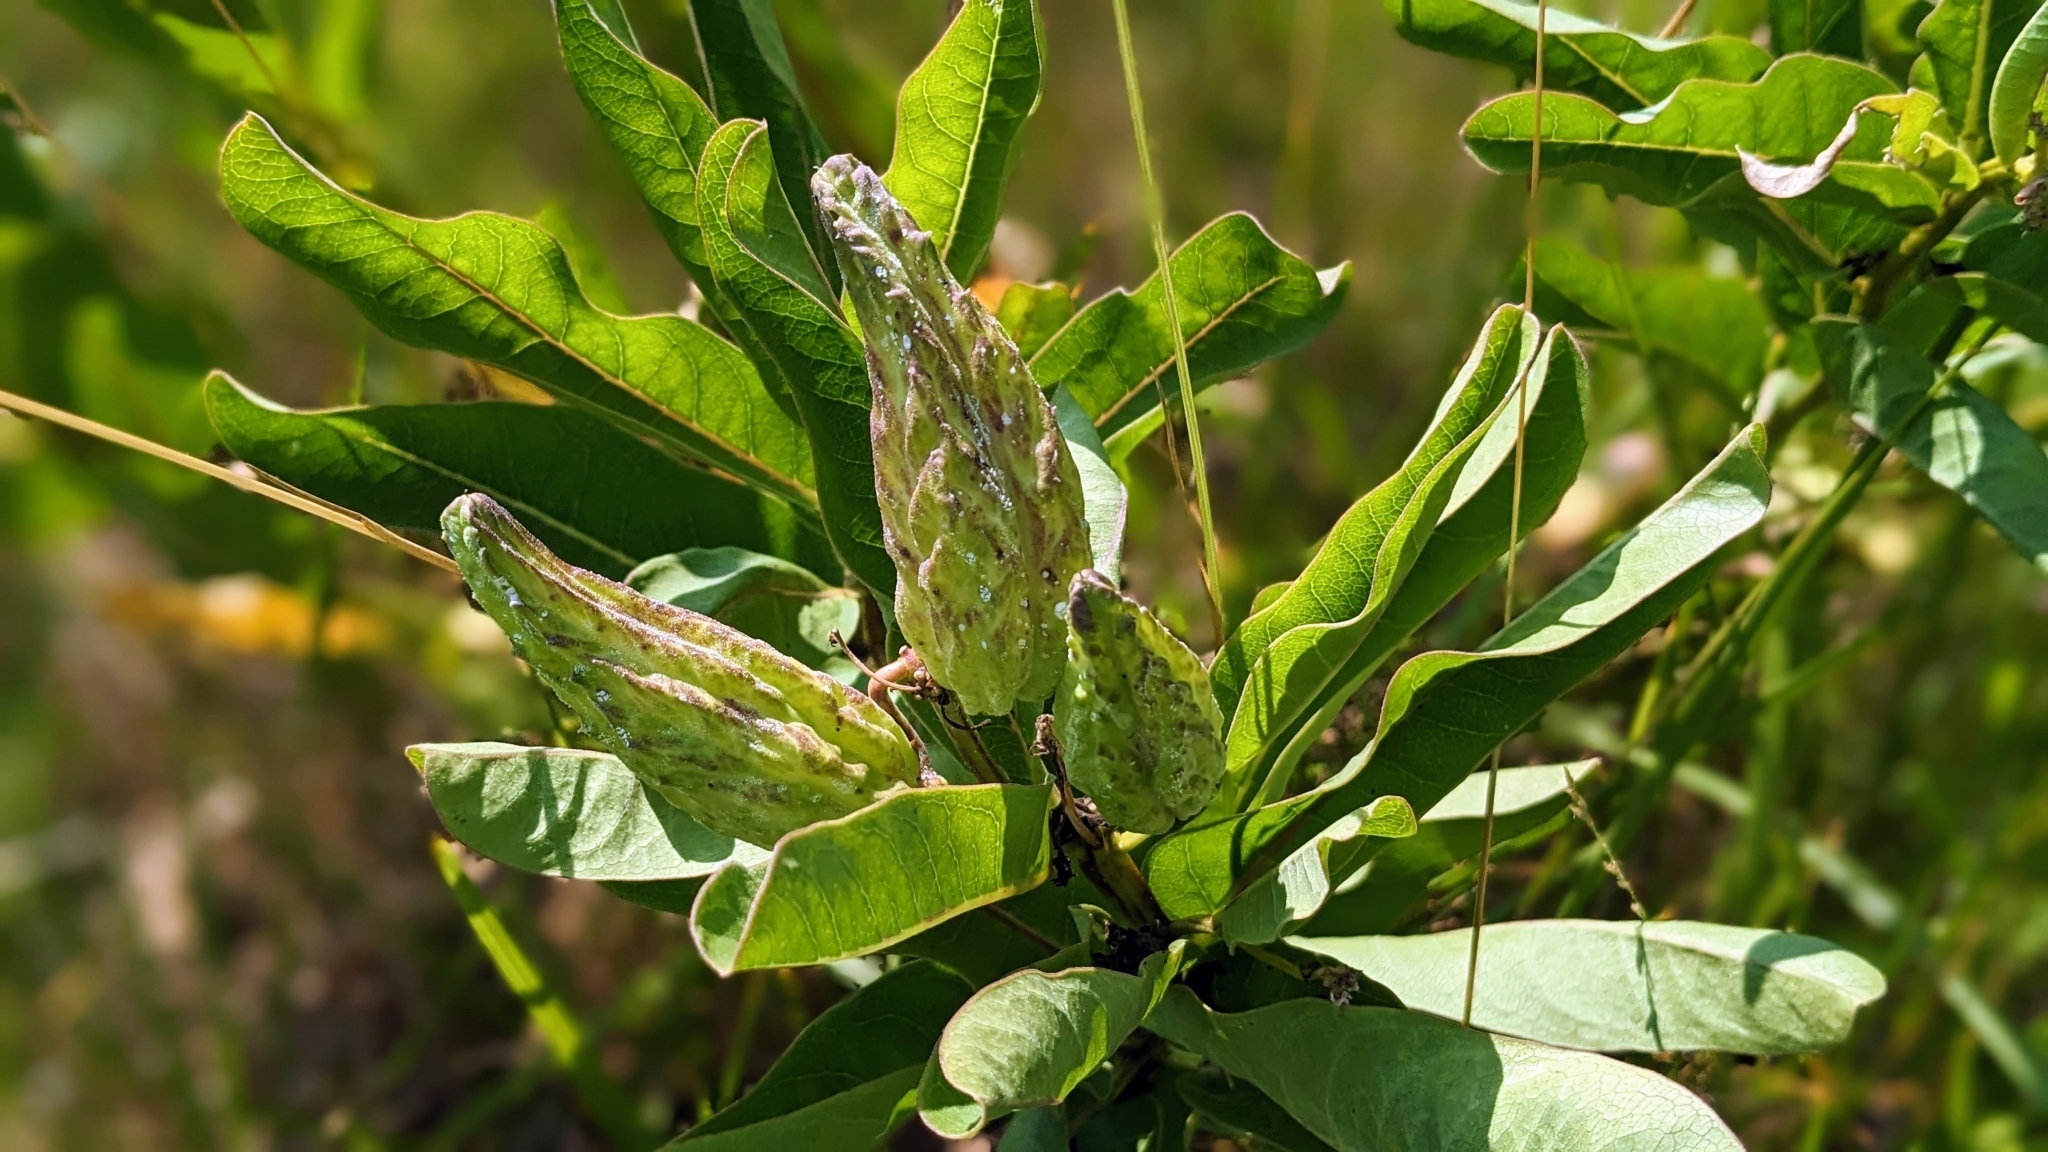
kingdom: Plantae
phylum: Tracheophyta
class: Magnoliopsida
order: Gentianales
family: Apocynaceae
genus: Asclepias
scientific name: Asclepias viridis
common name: Antelope-horns
